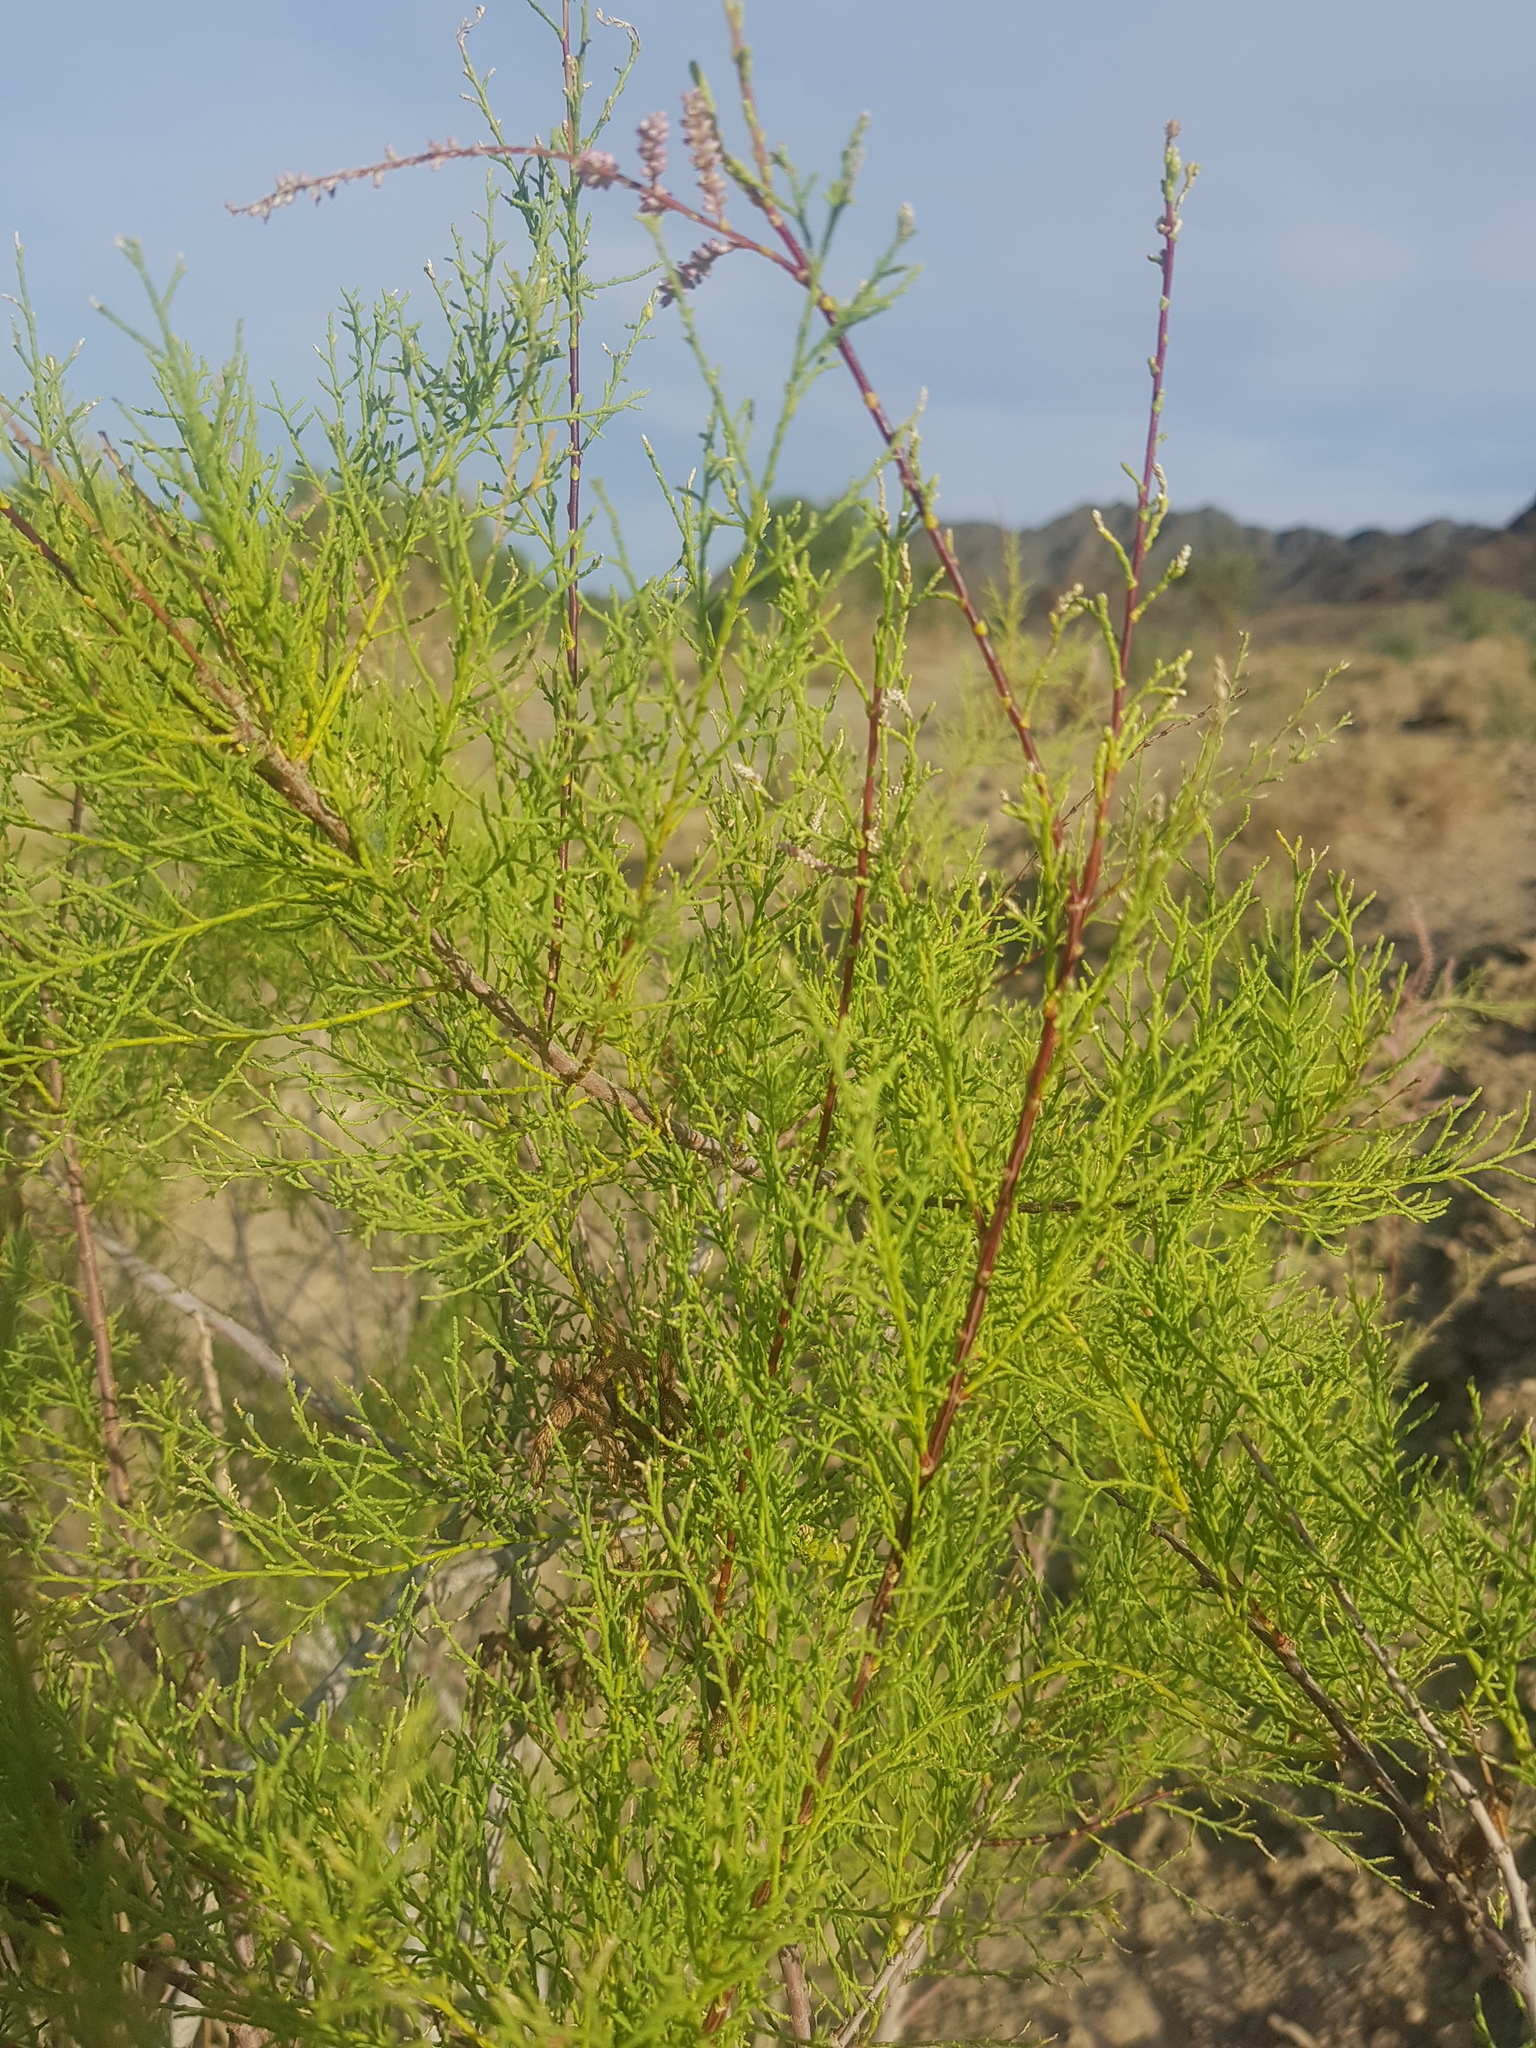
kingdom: Plantae
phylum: Tracheophyta
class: Magnoliopsida
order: Caryophyllales
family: Tamaricaceae
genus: Tamarix
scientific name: Tamarix karelinii
